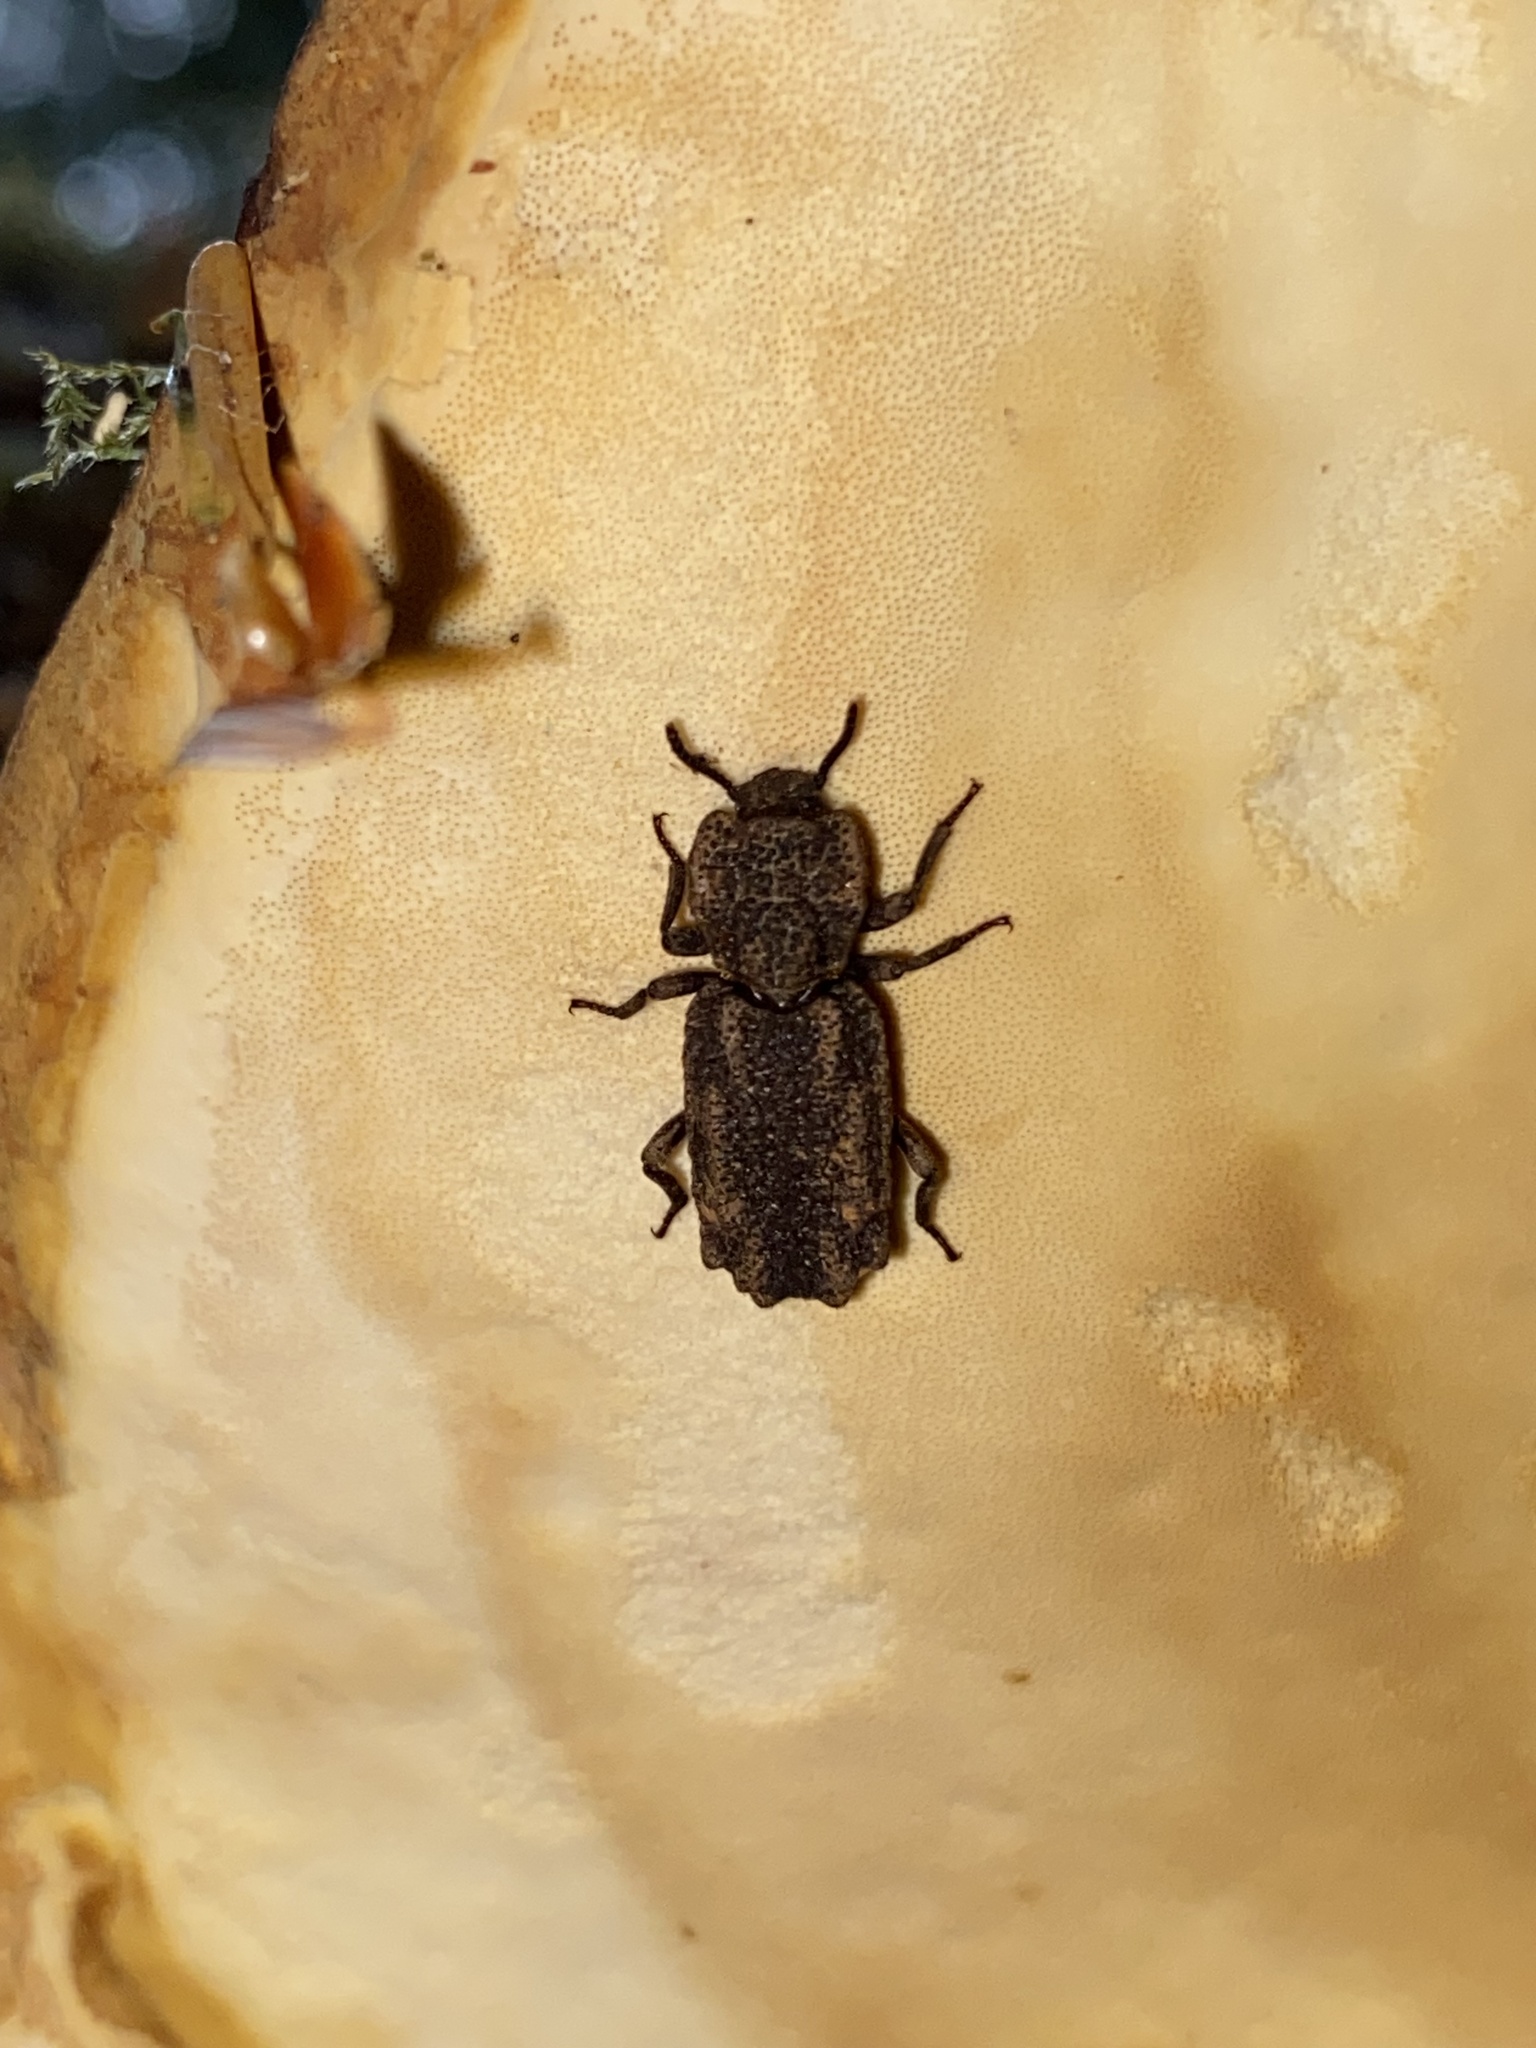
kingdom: Animalia
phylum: Arthropoda
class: Insecta
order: Coleoptera
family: Zopheridae
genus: Phellopsis
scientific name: Phellopsis porcata
